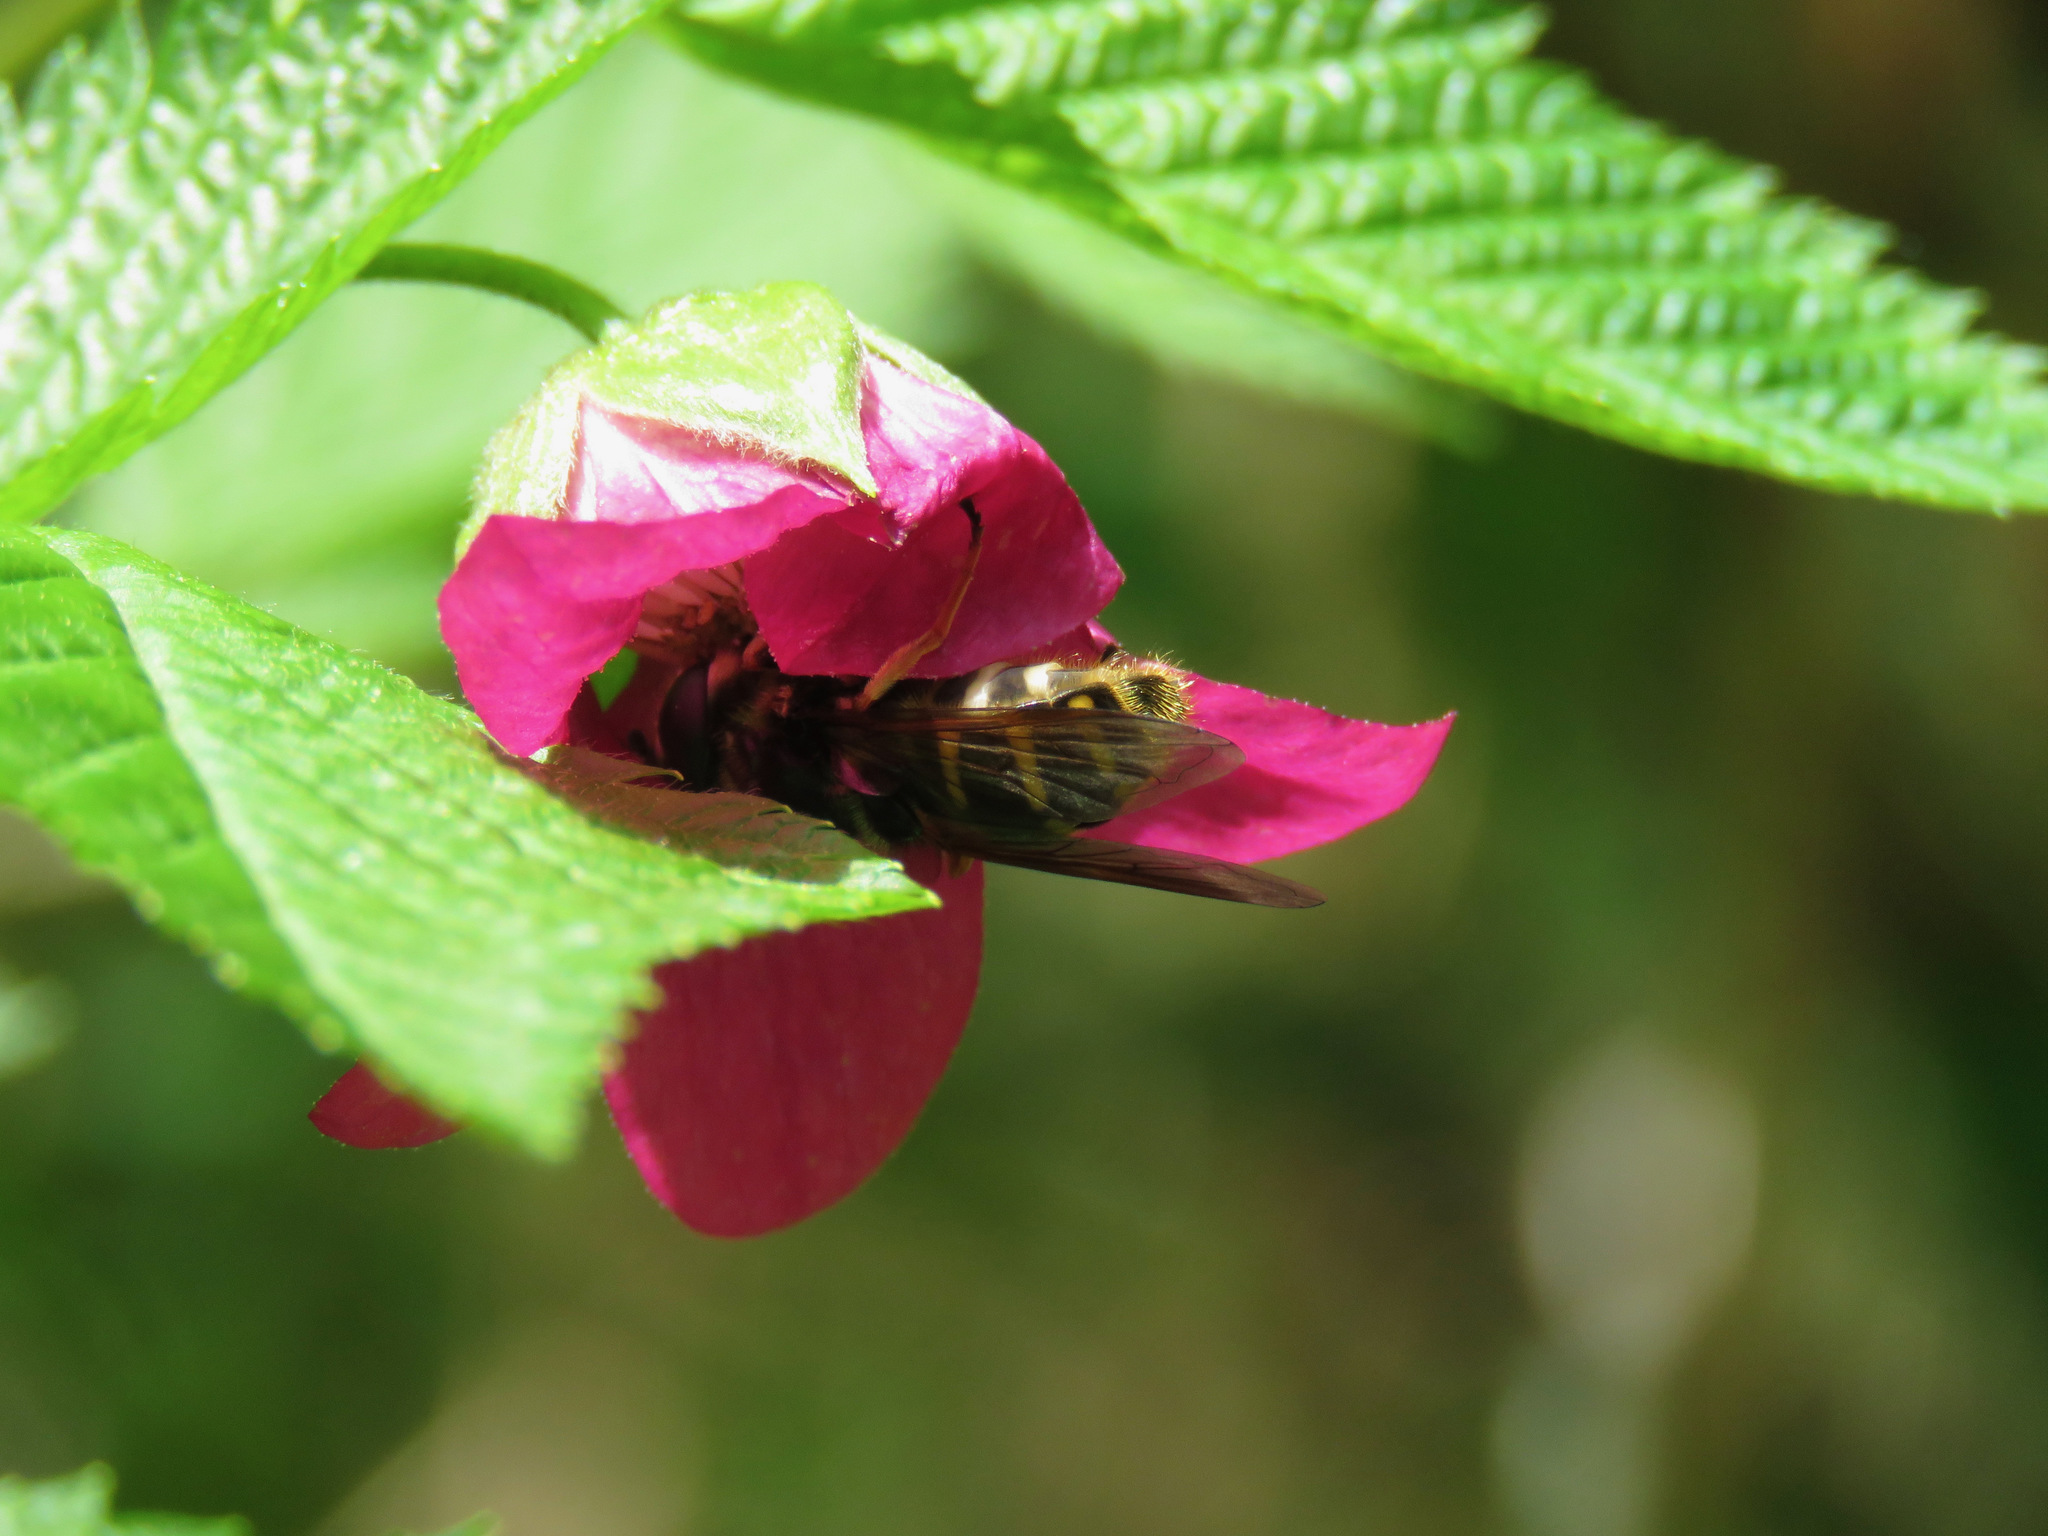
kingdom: Animalia
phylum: Arthropoda
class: Insecta
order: Diptera
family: Syrphidae
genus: Sericomyia
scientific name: Sericomyia chalcopyga
